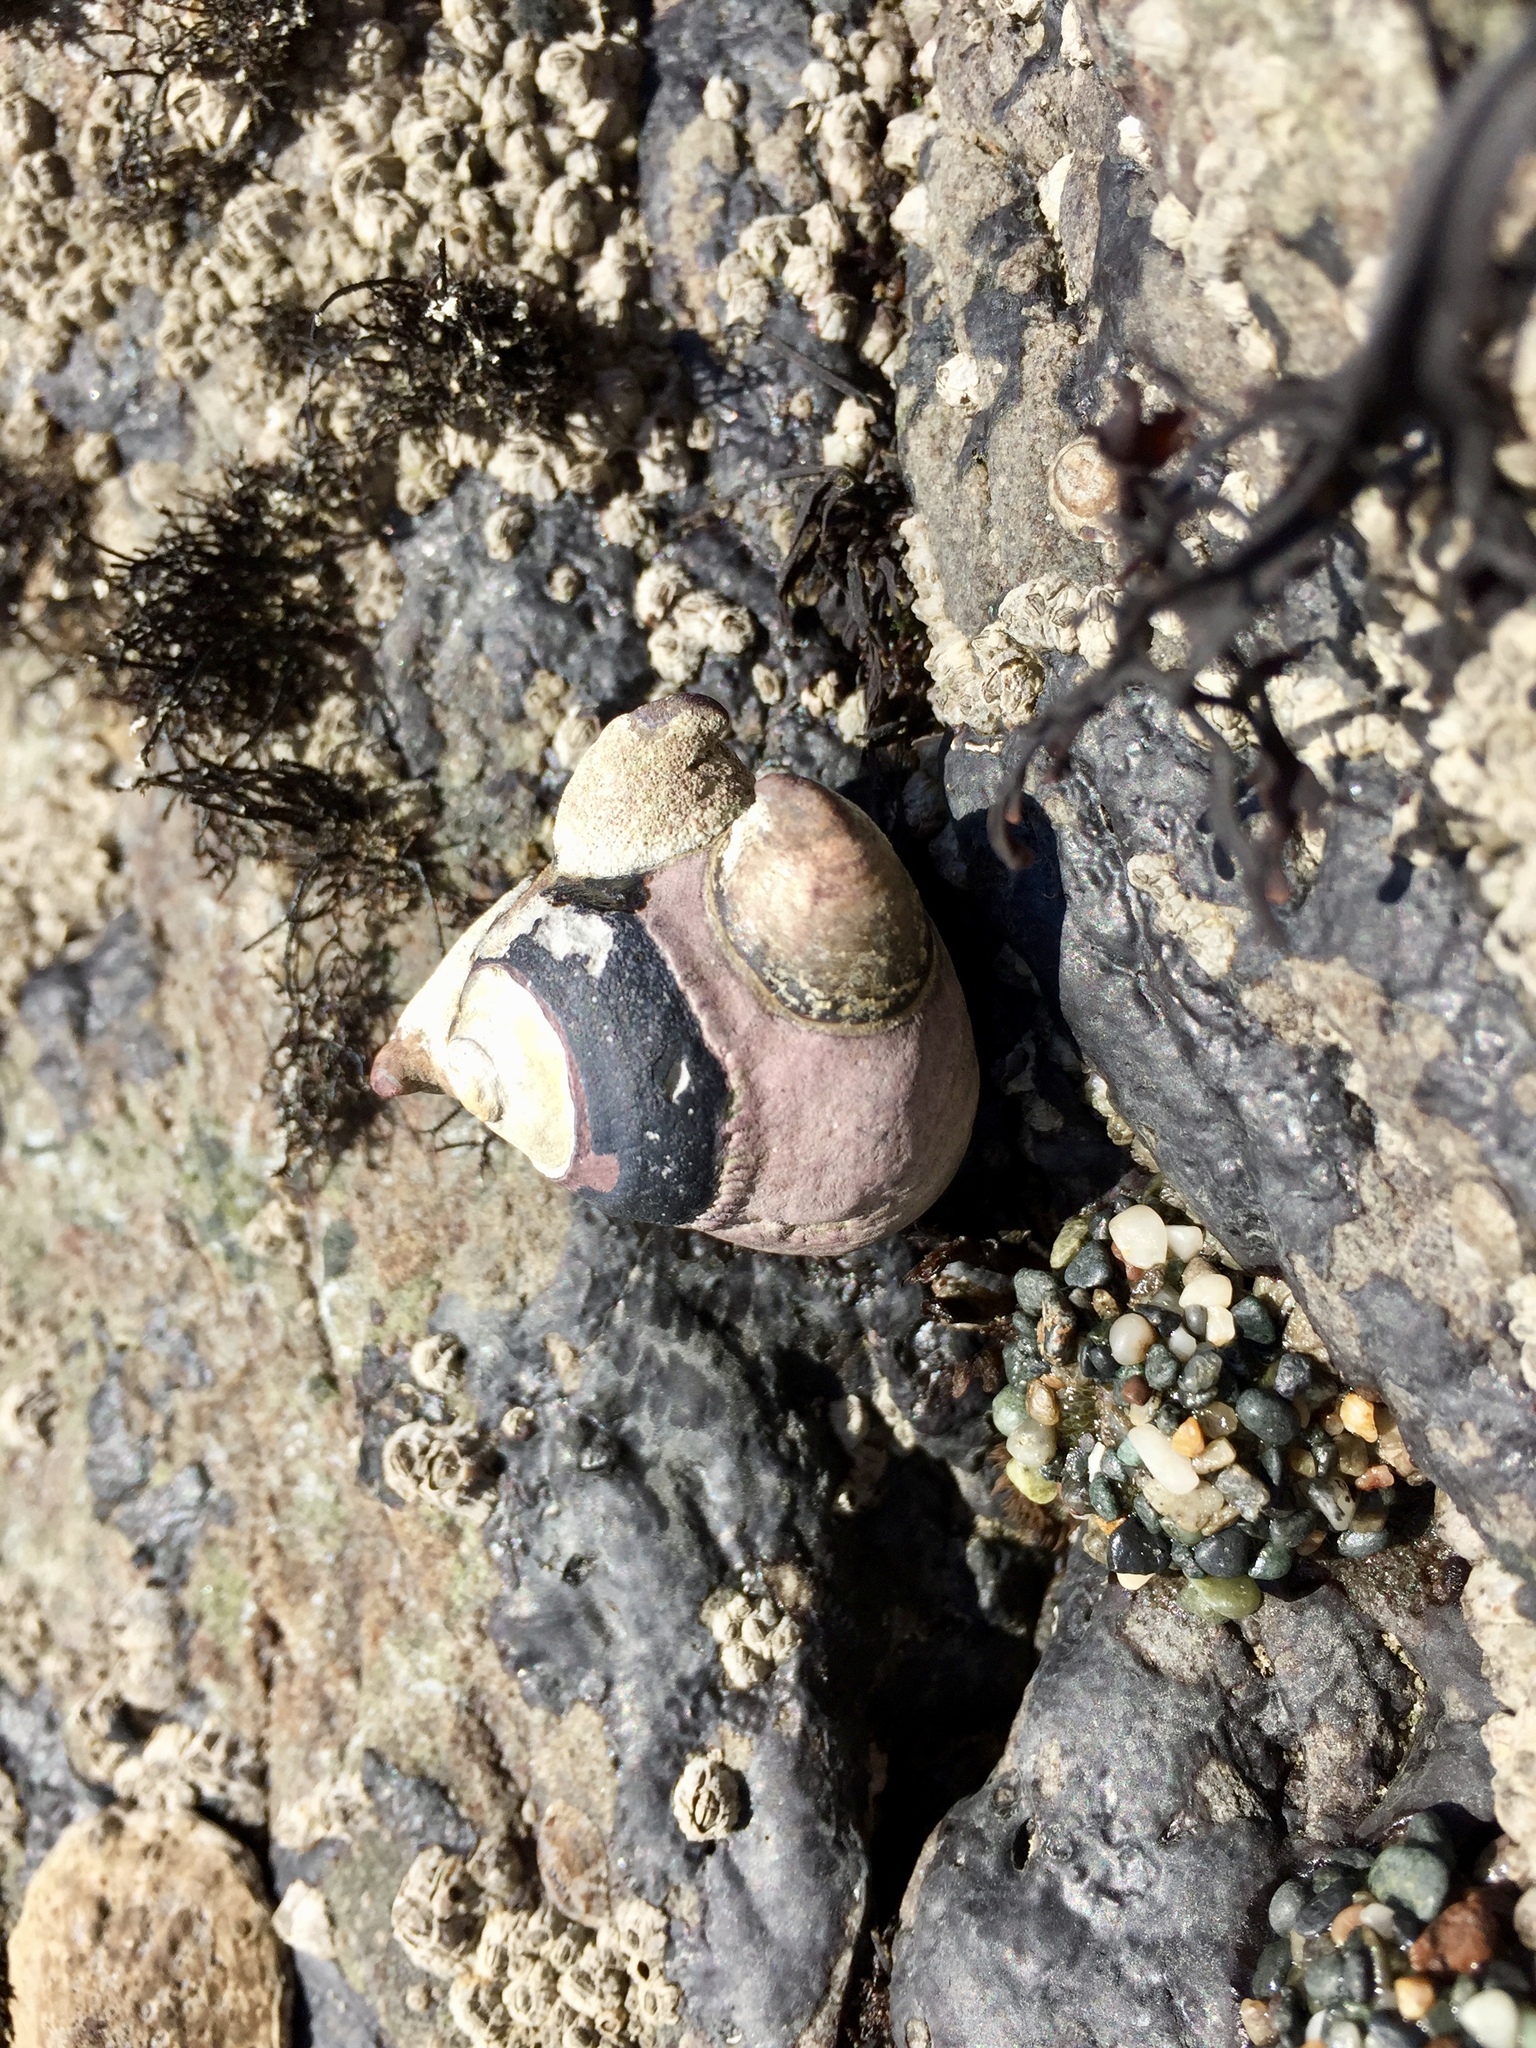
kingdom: Animalia
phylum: Mollusca
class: Gastropoda
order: Trochida
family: Tegulidae
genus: Tegula
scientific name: Tegula funebralis
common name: Black tegula
